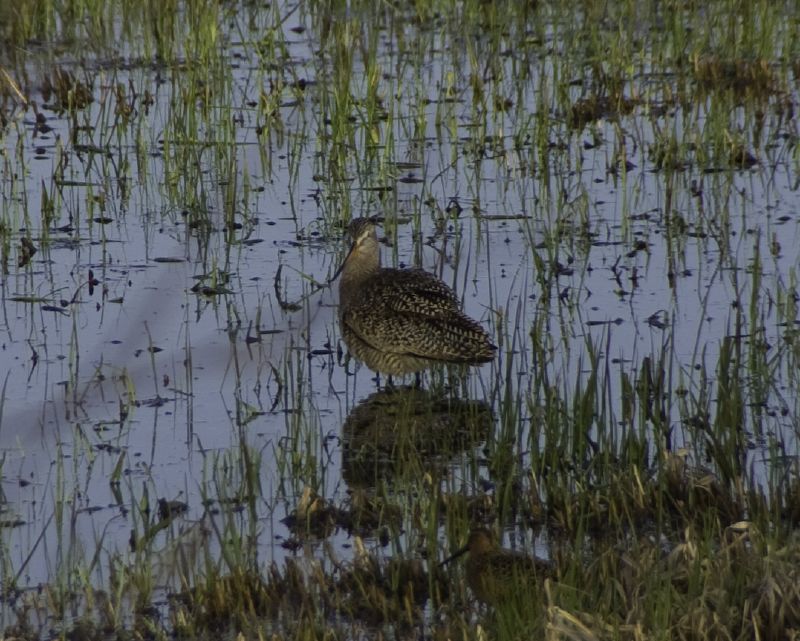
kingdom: Animalia
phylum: Chordata
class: Aves
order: Charadriiformes
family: Scolopacidae
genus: Limosa
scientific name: Limosa fedoa
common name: Marbled godwit
